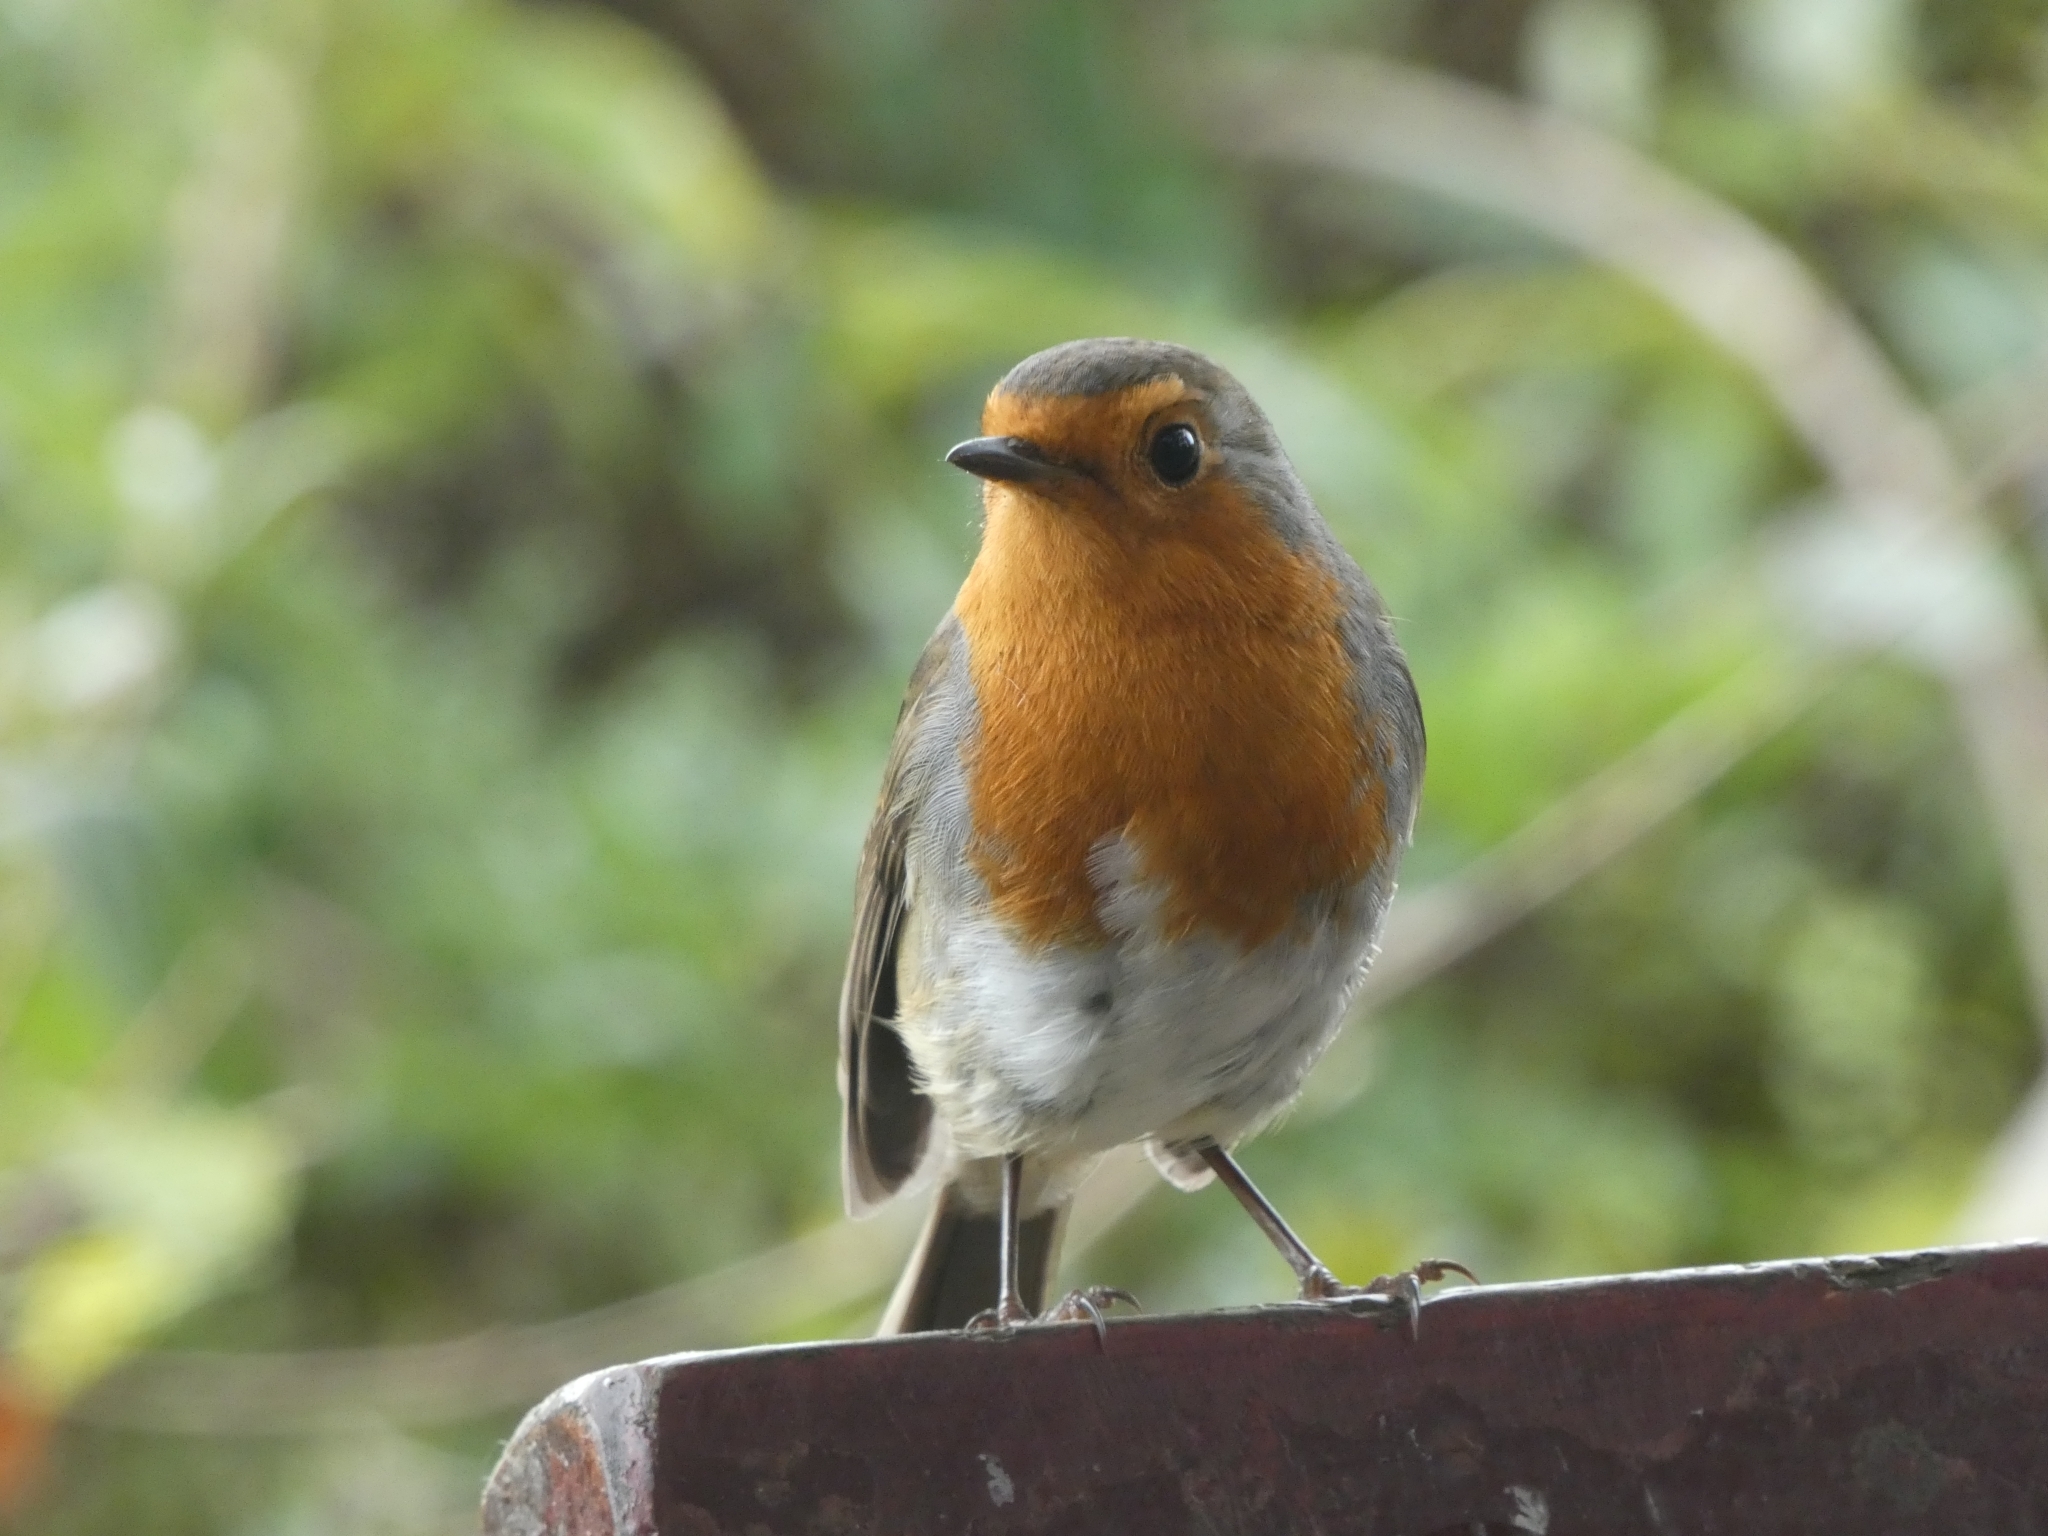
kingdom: Animalia
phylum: Chordata
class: Aves
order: Passeriformes
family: Muscicapidae
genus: Erithacus
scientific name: Erithacus rubecula
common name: European robin
